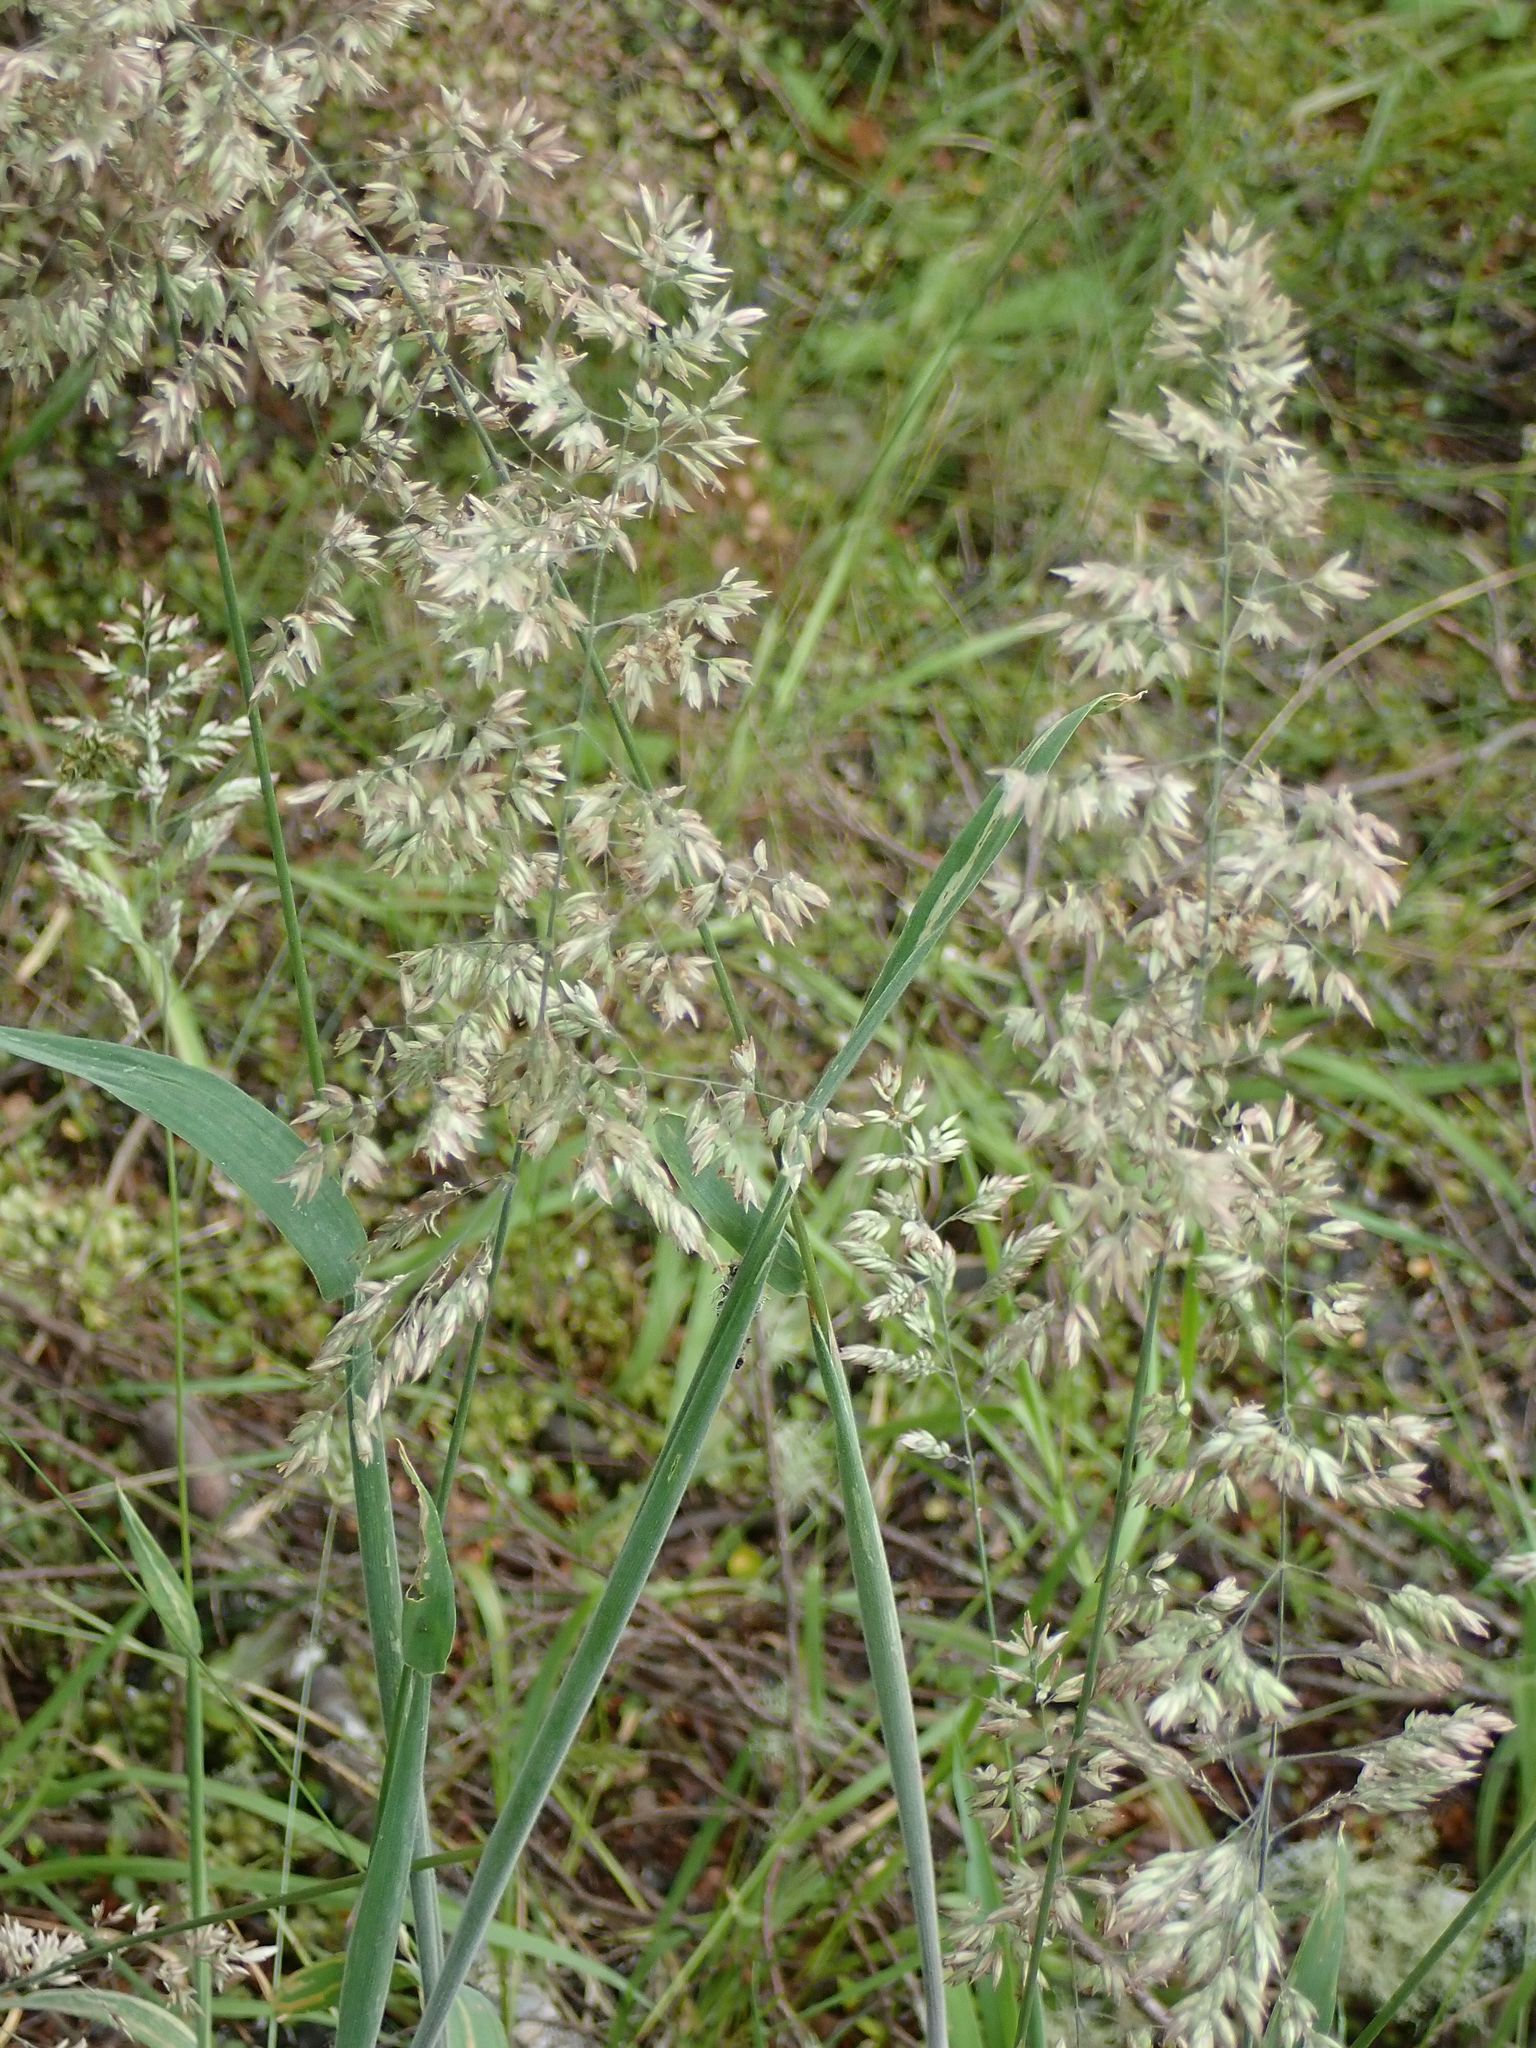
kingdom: Plantae
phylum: Tracheophyta
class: Liliopsida
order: Poales
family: Poaceae
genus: Holcus
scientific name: Holcus lanatus
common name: Yorkshire-fog
